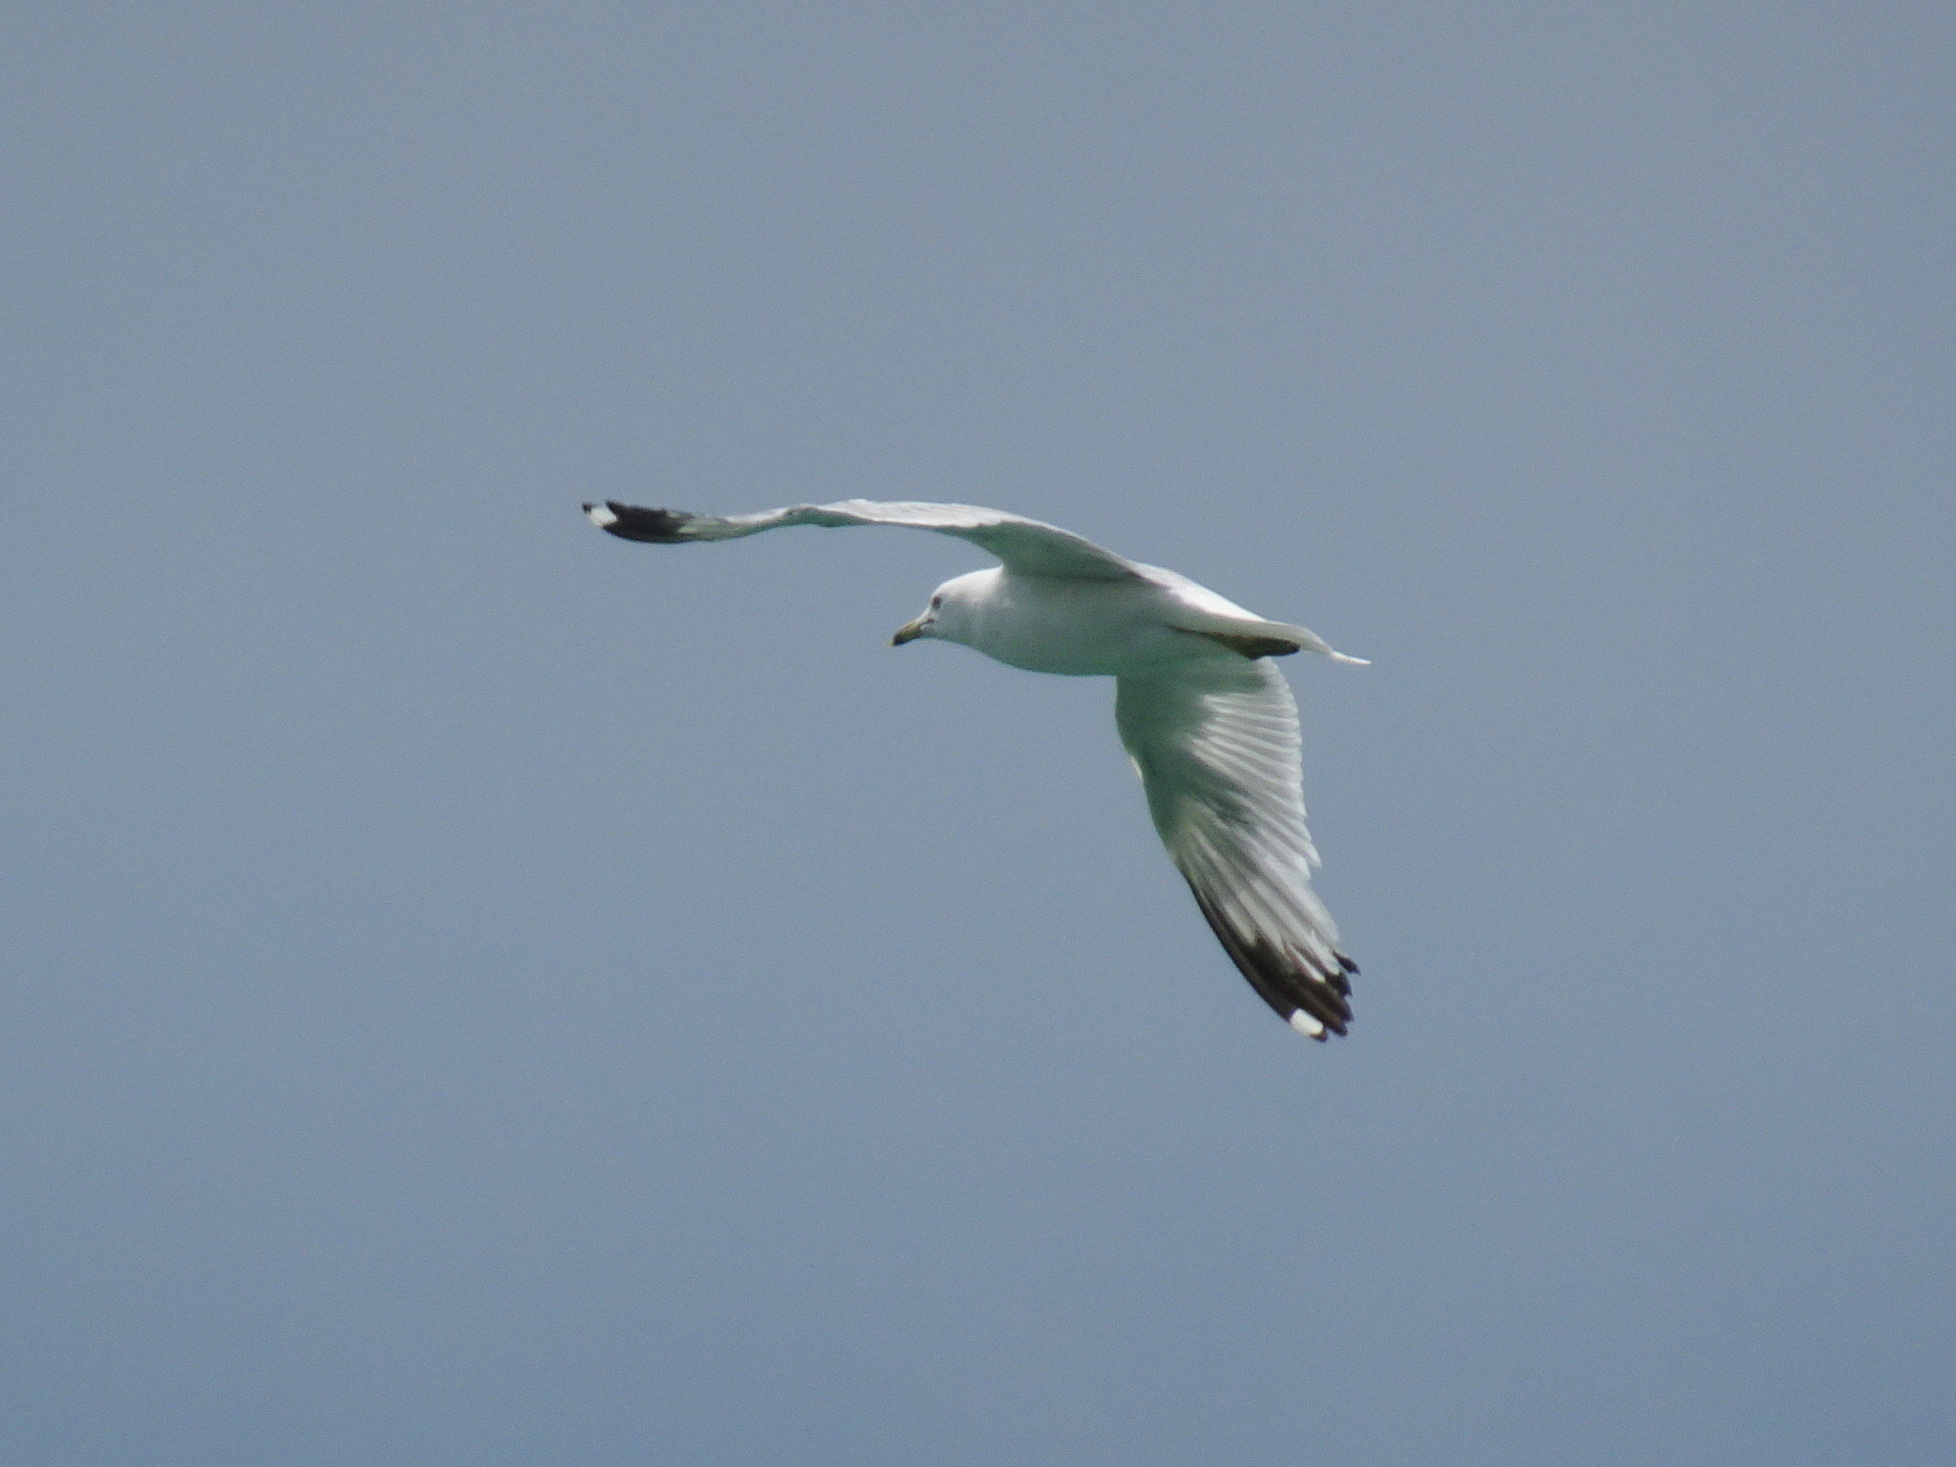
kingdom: Animalia
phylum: Chordata
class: Aves
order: Charadriiformes
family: Laridae
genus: Larus
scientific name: Larus delawarensis
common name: Ring-billed gull
